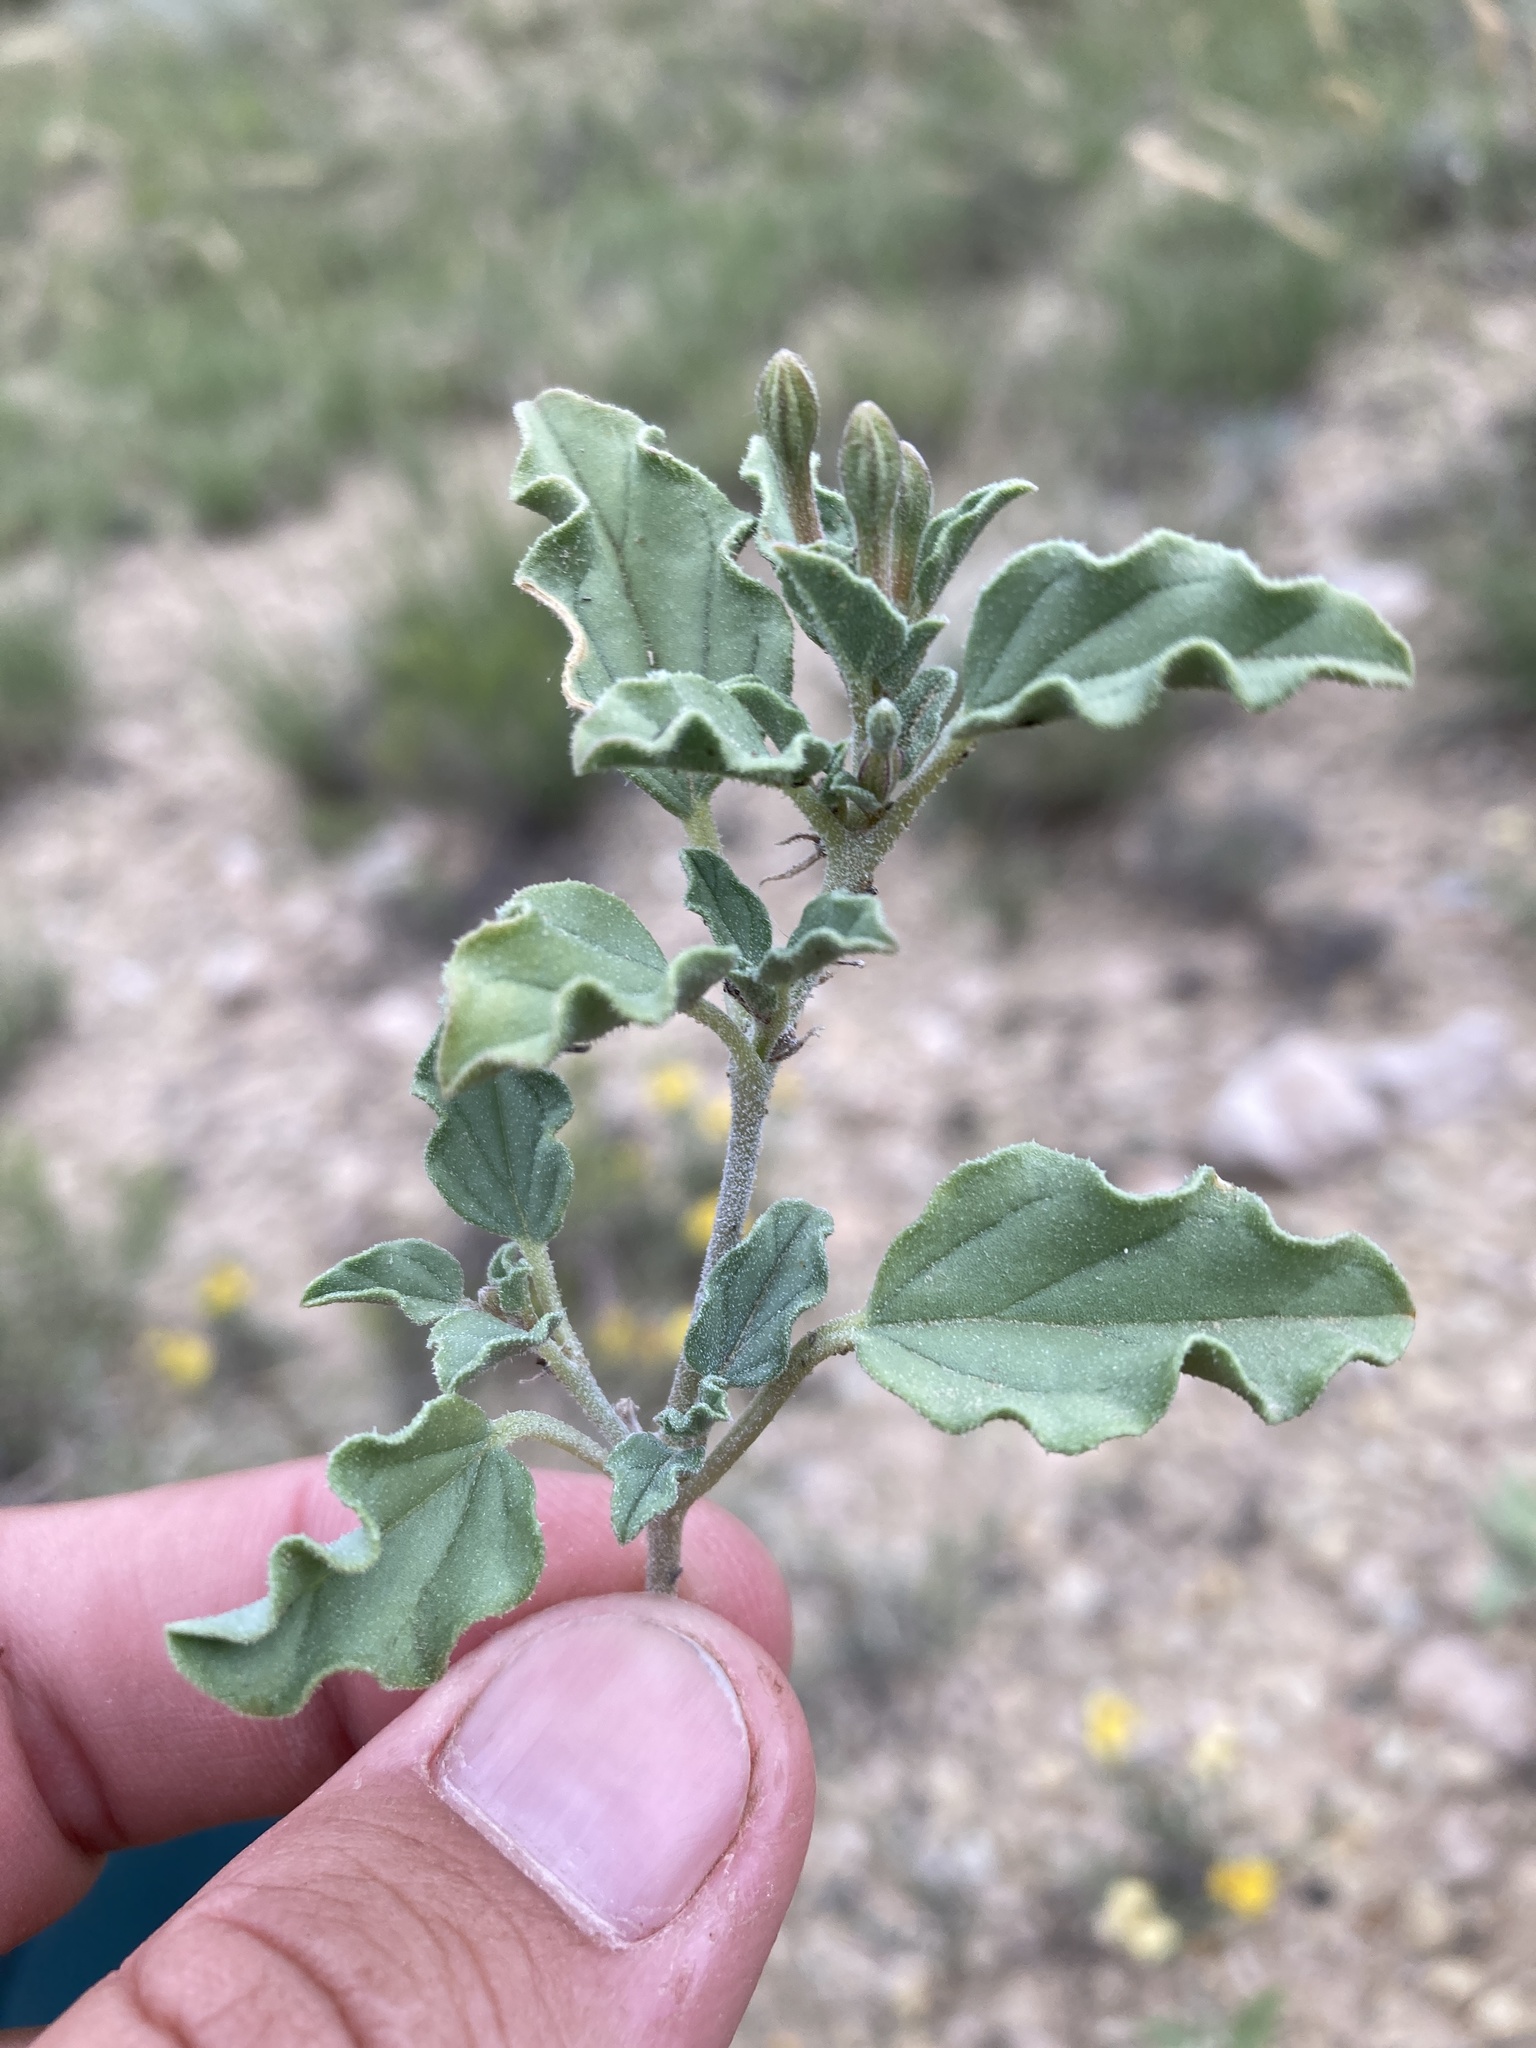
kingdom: Plantae
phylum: Tracheophyta
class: Magnoliopsida
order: Caryophyllales
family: Nyctaginaceae
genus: Acleisanthes
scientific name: Acleisanthes diffusa
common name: Spreading moonpod
